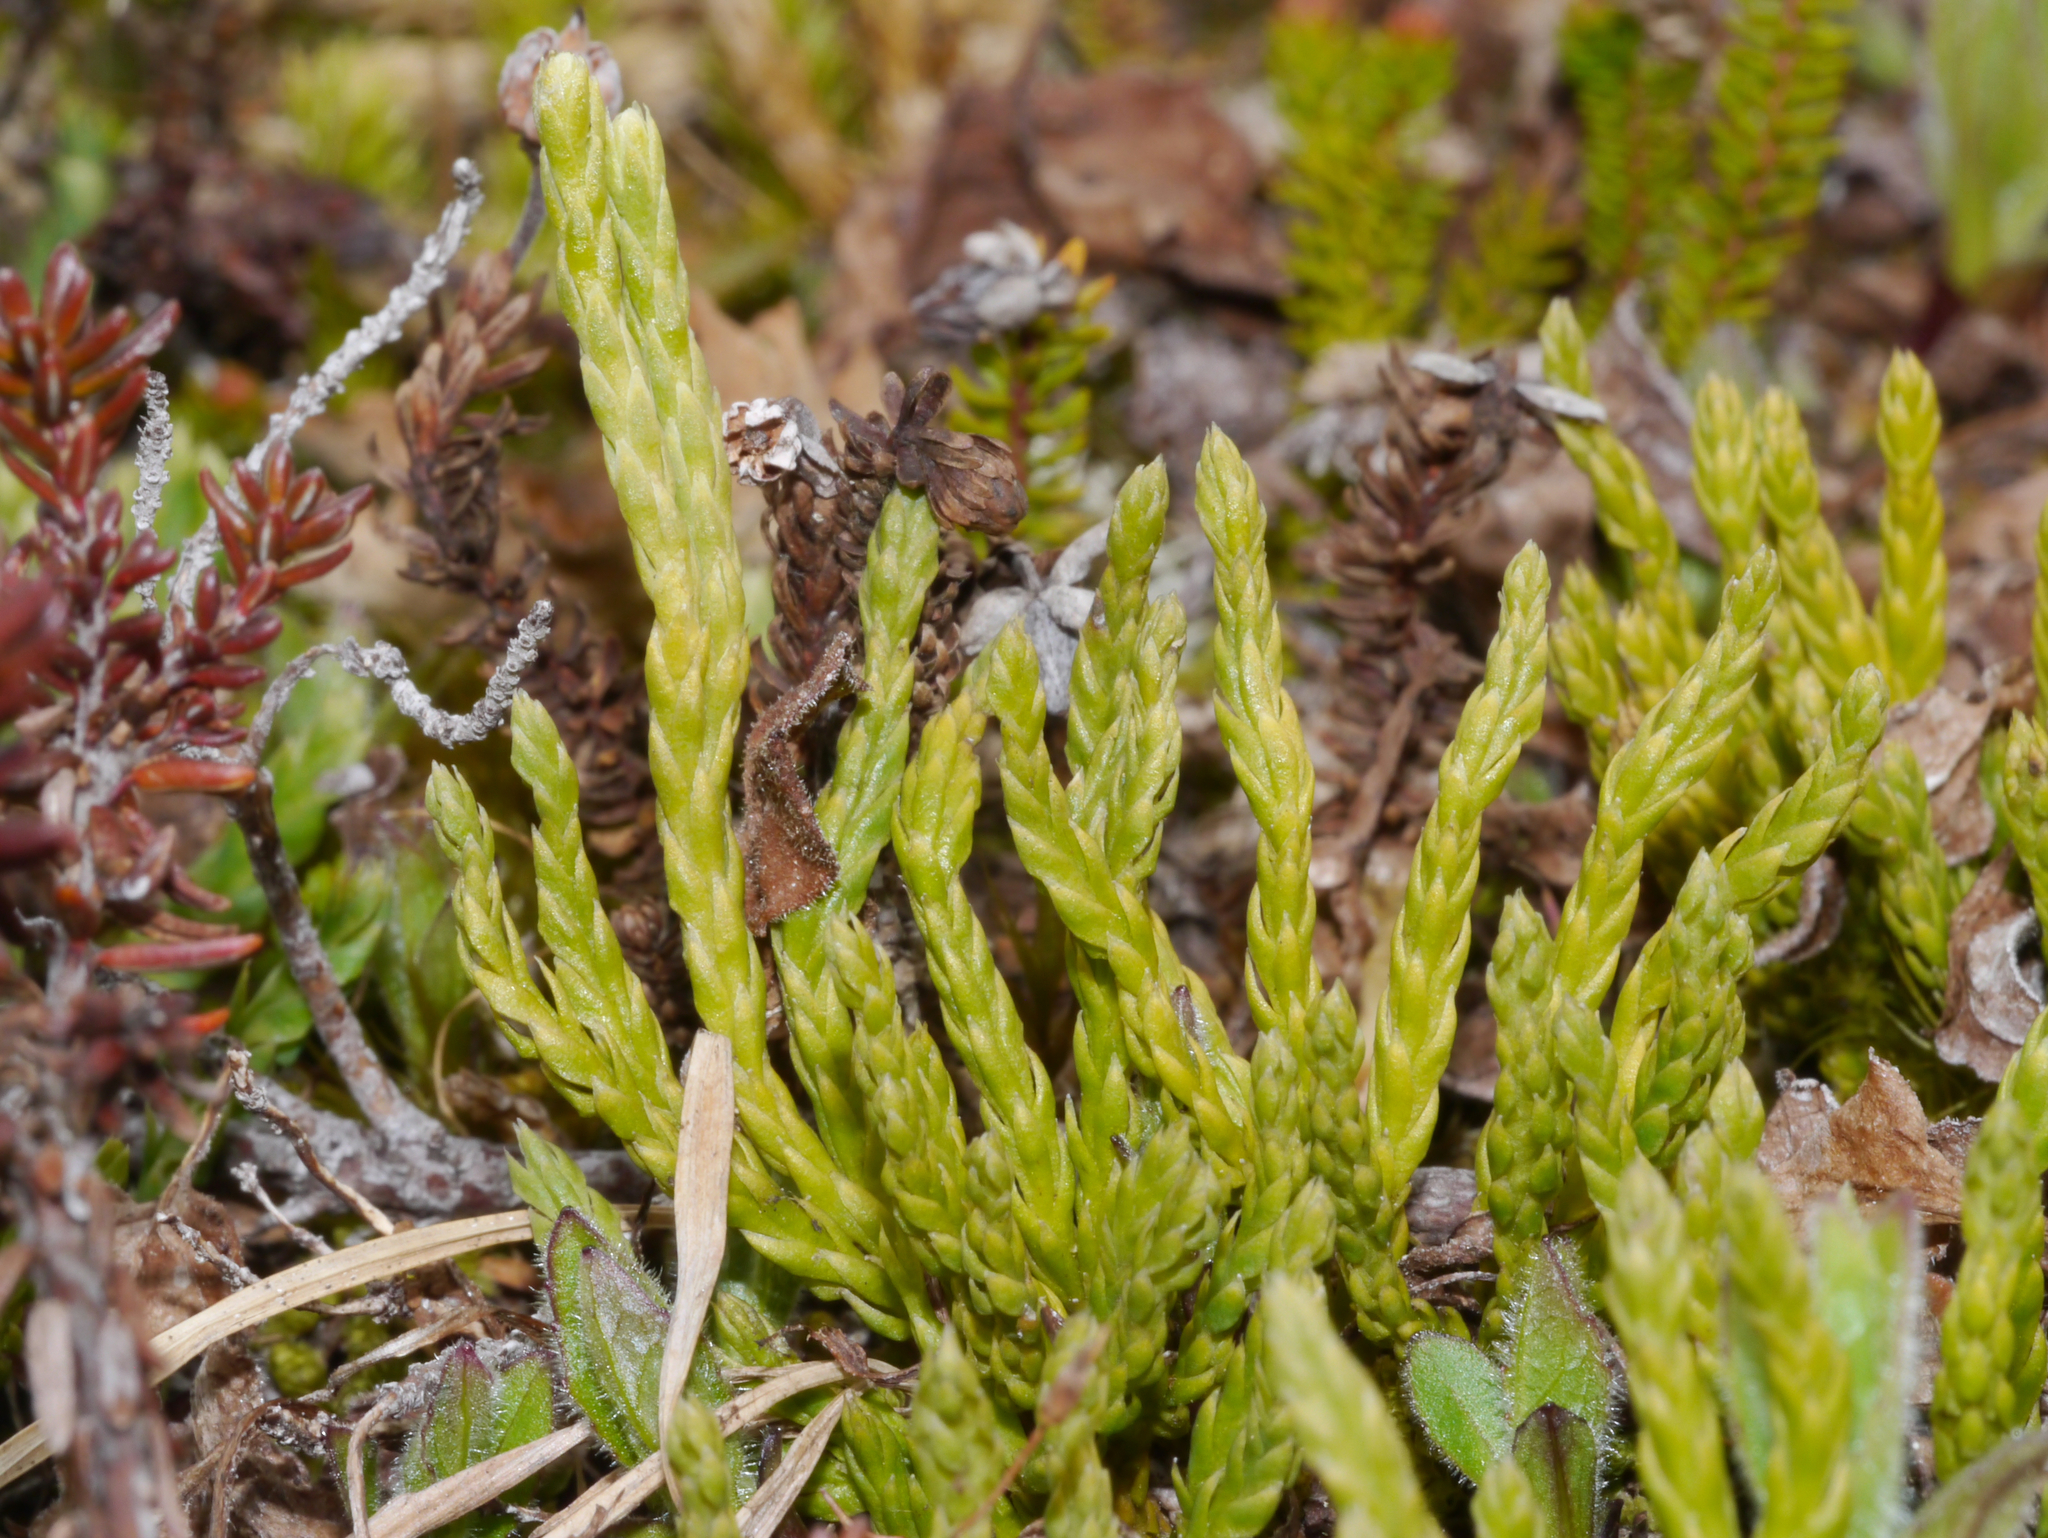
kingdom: Plantae
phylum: Tracheophyta
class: Lycopodiopsida
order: Lycopodiales
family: Lycopodiaceae
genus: Diphasiastrum
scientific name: Diphasiastrum alpinum
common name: Alpine clubmoss
